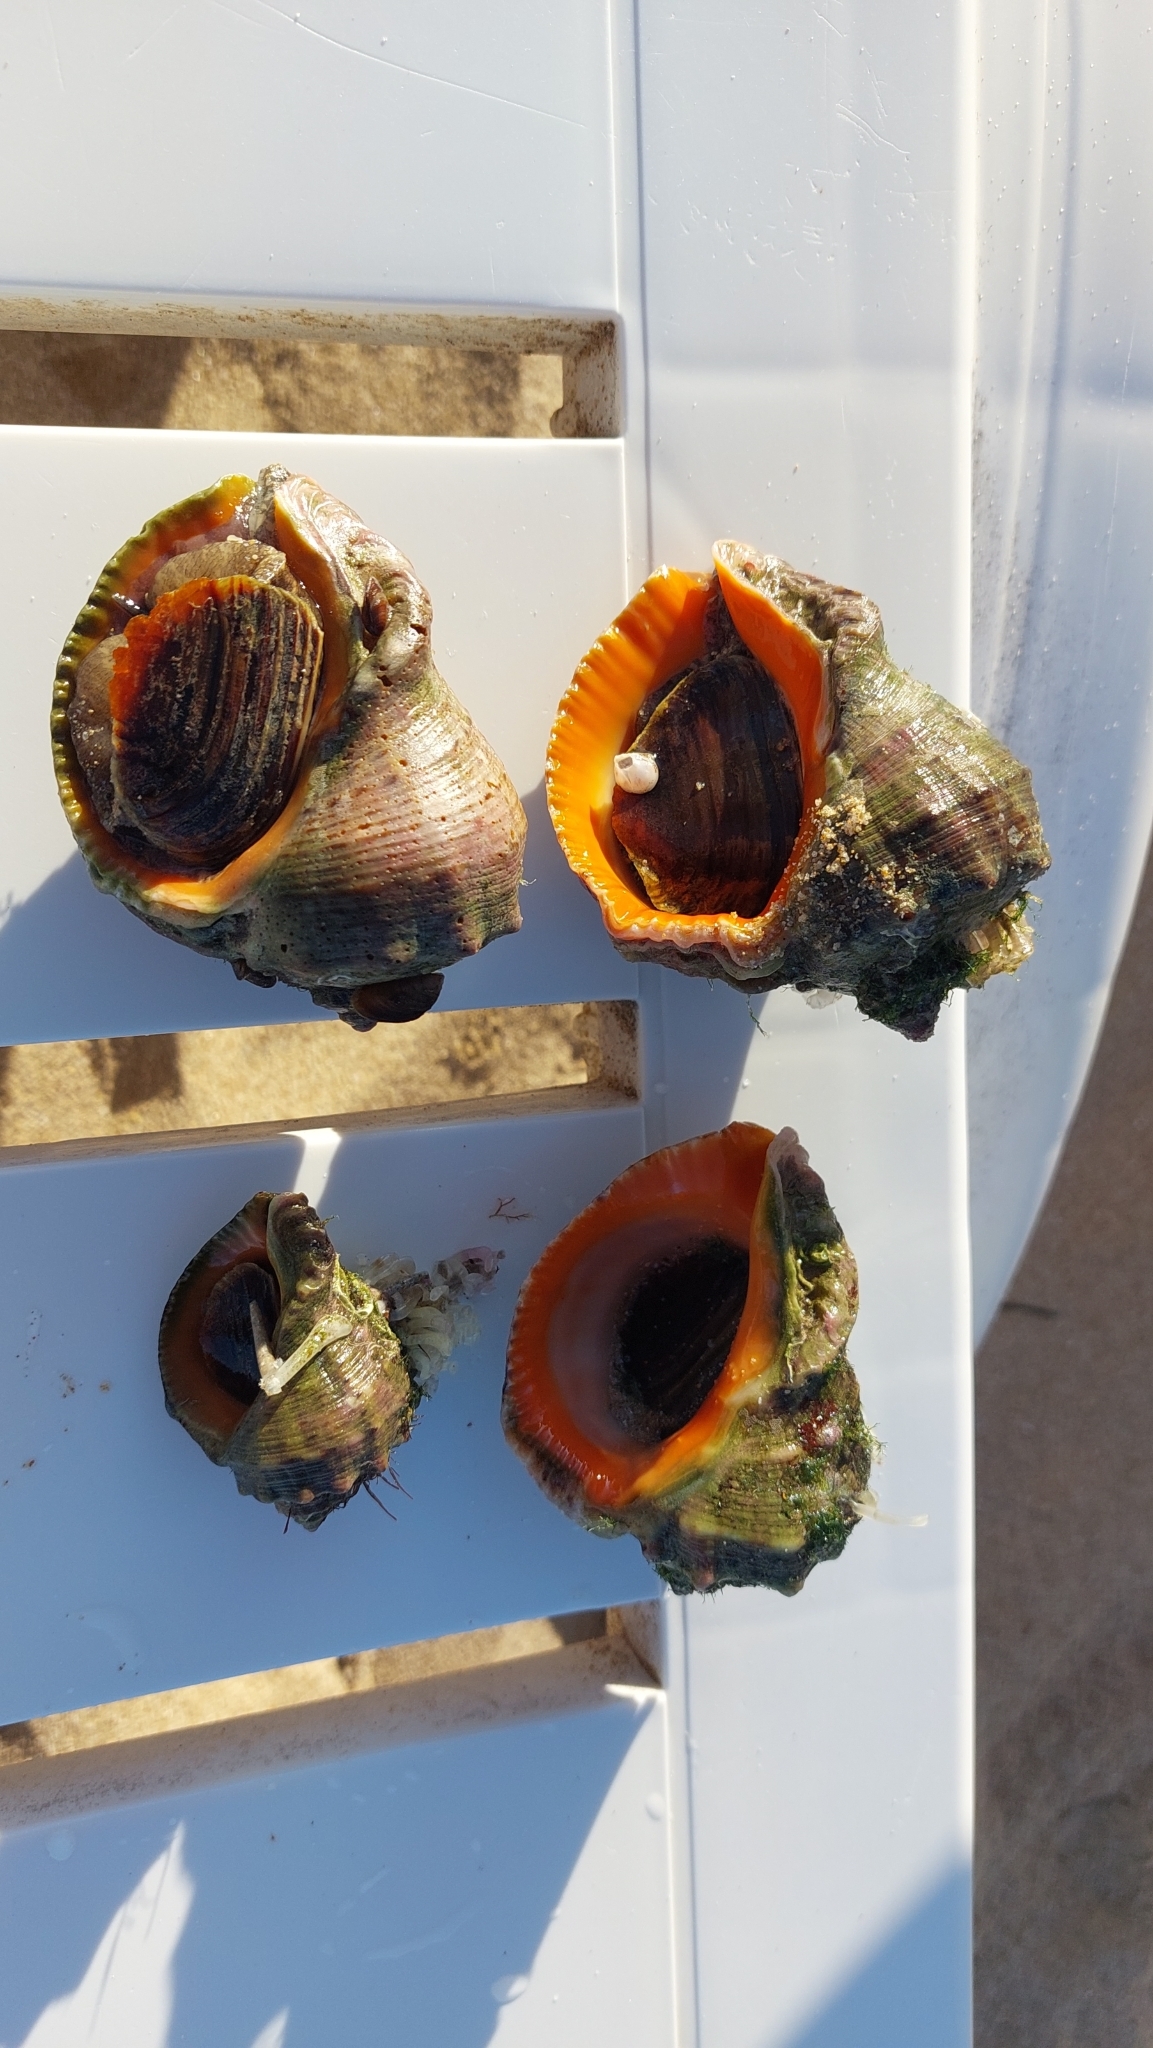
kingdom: Animalia
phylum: Mollusca
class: Gastropoda
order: Neogastropoda
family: Muricidae
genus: Rapana
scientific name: Rapana venosa
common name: Veined rapa whelk
